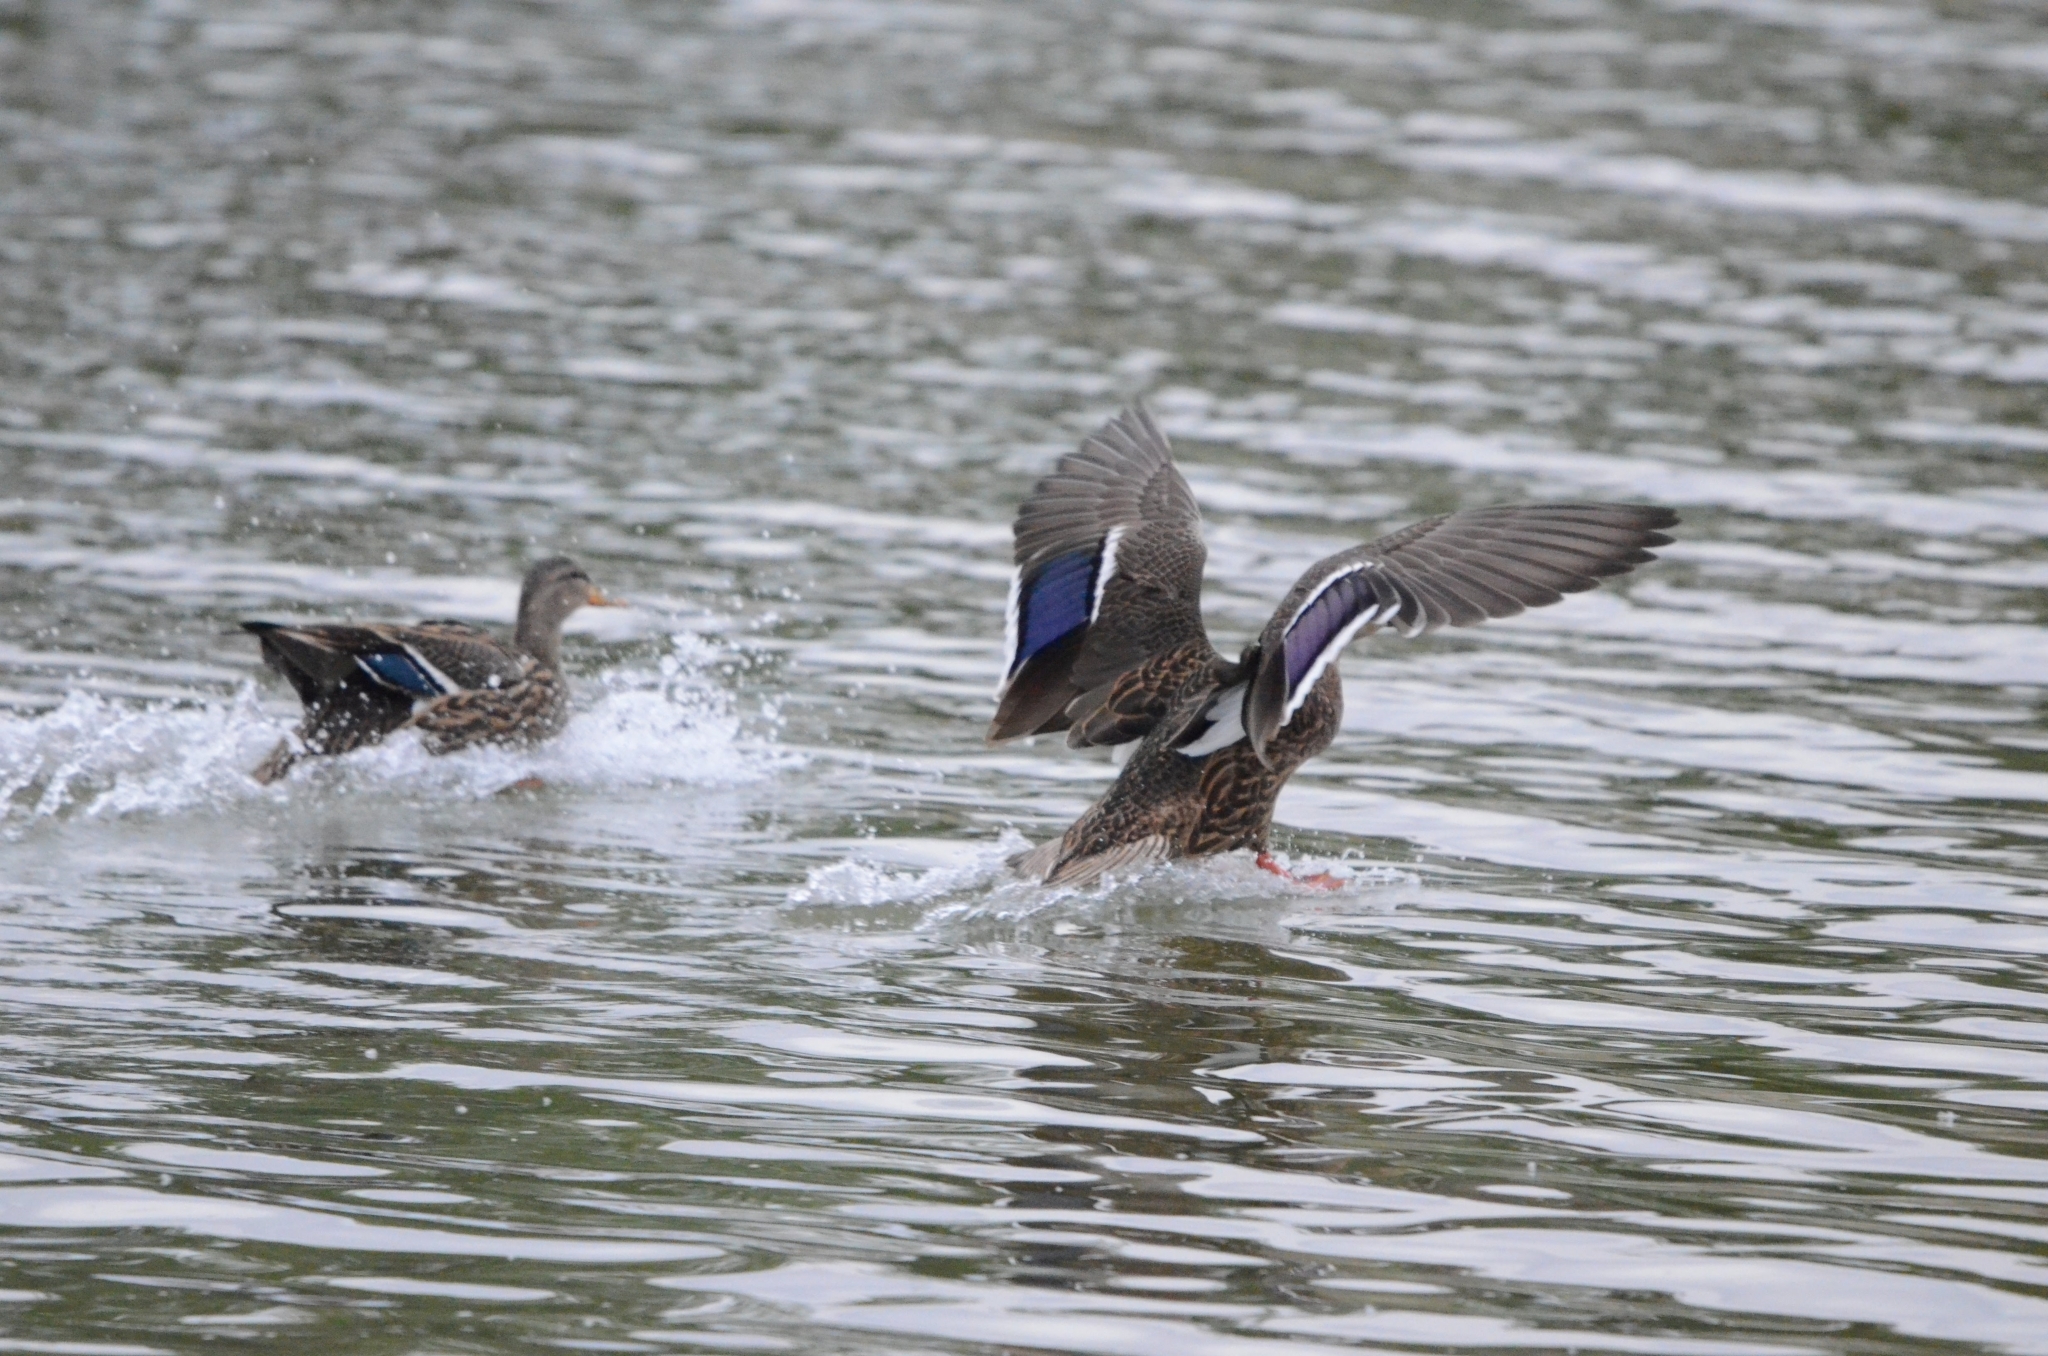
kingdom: Animalia
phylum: Chordata
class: Aves
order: Anseriformes
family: Anatidae
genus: Anas
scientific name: Anas diazi
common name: Mexican duck
